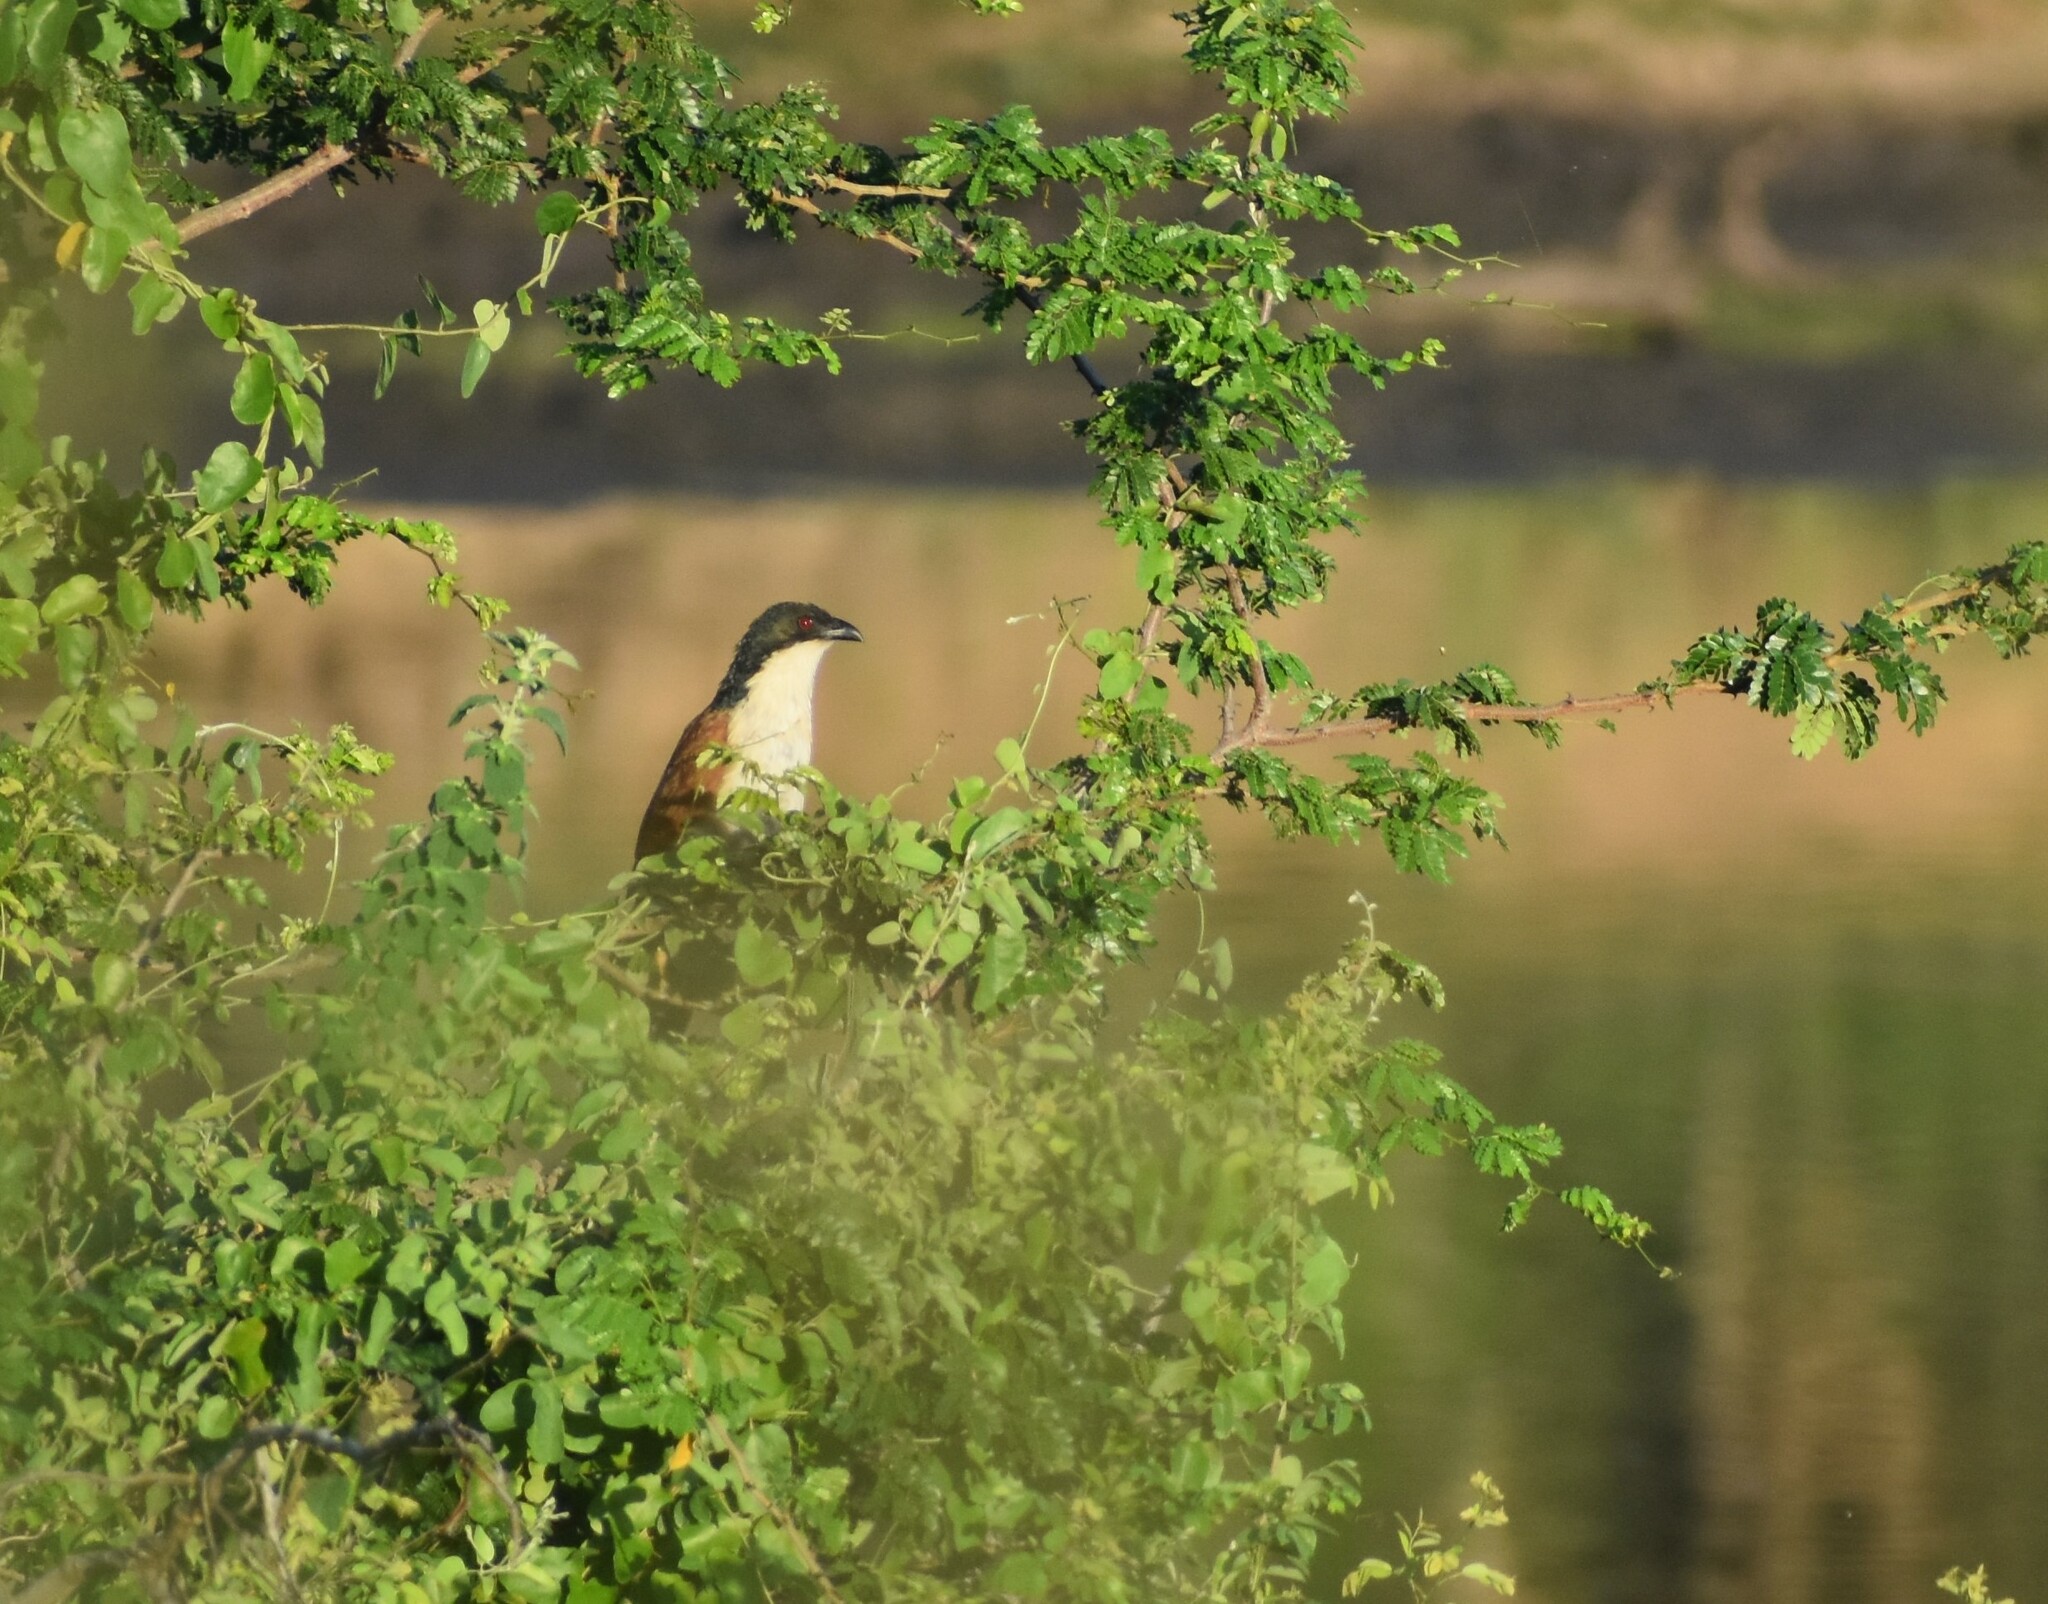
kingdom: Animalia
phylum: Chordata
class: Aves
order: Cuculiformes
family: Cuculidae
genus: Centropus
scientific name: Centropus superciliosus
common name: White-browed coucal
